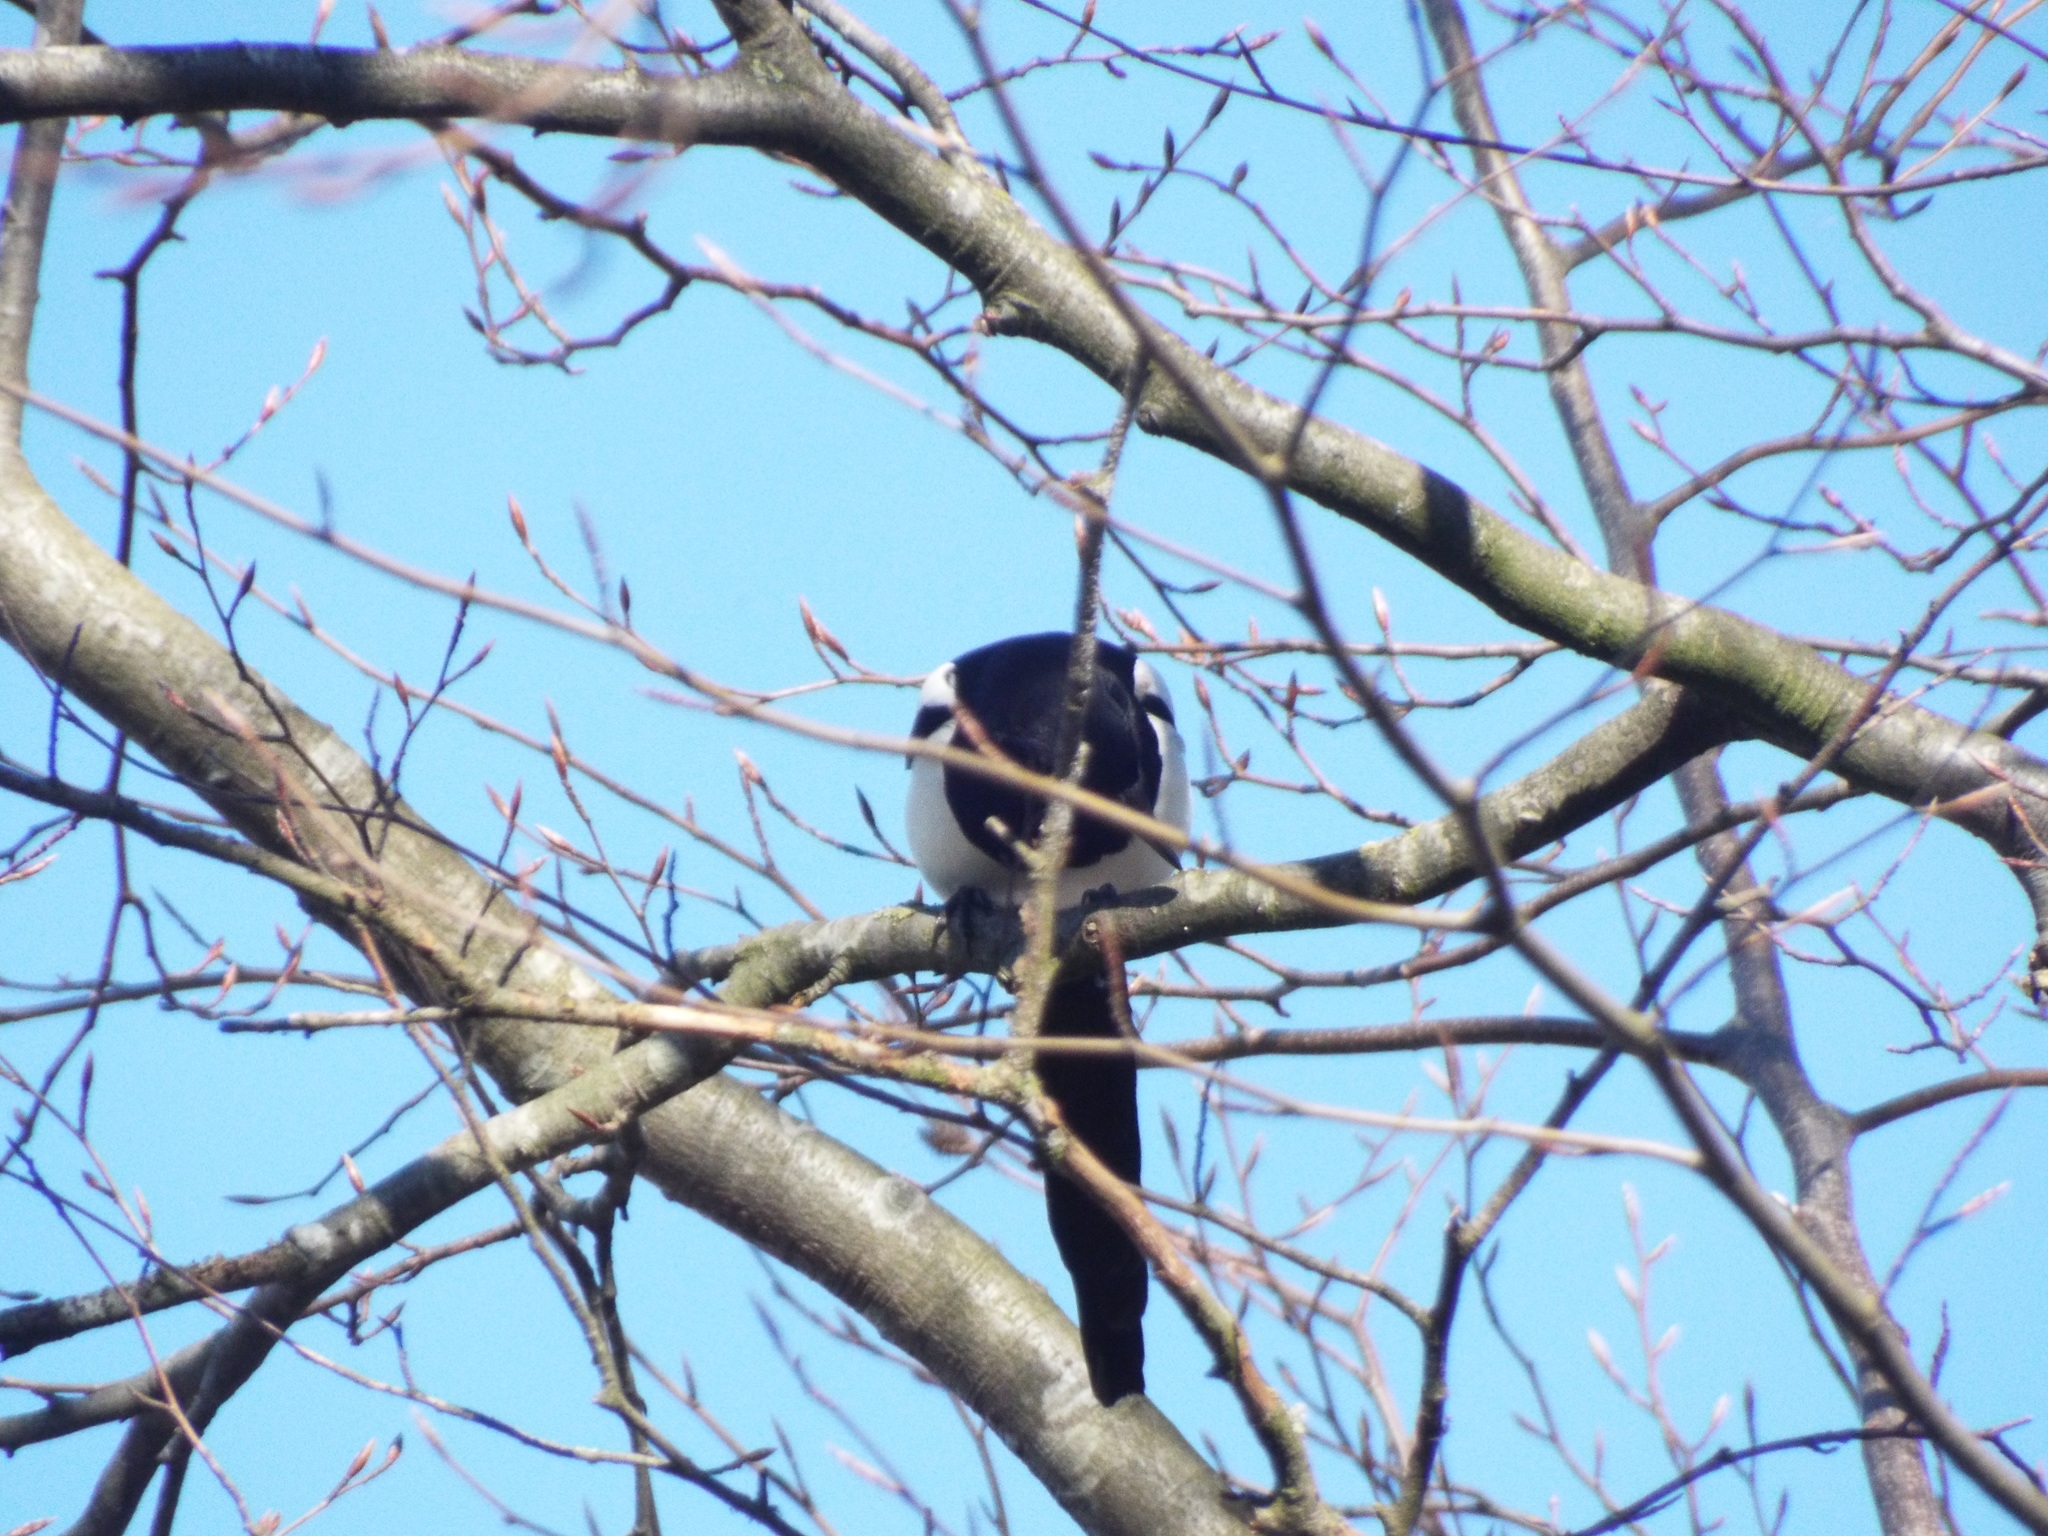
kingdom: Animalia
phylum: Chordata
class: Aves
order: Passeriformes
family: Corvidae
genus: Pica
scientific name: Pica pica
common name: Eurasian magpie
